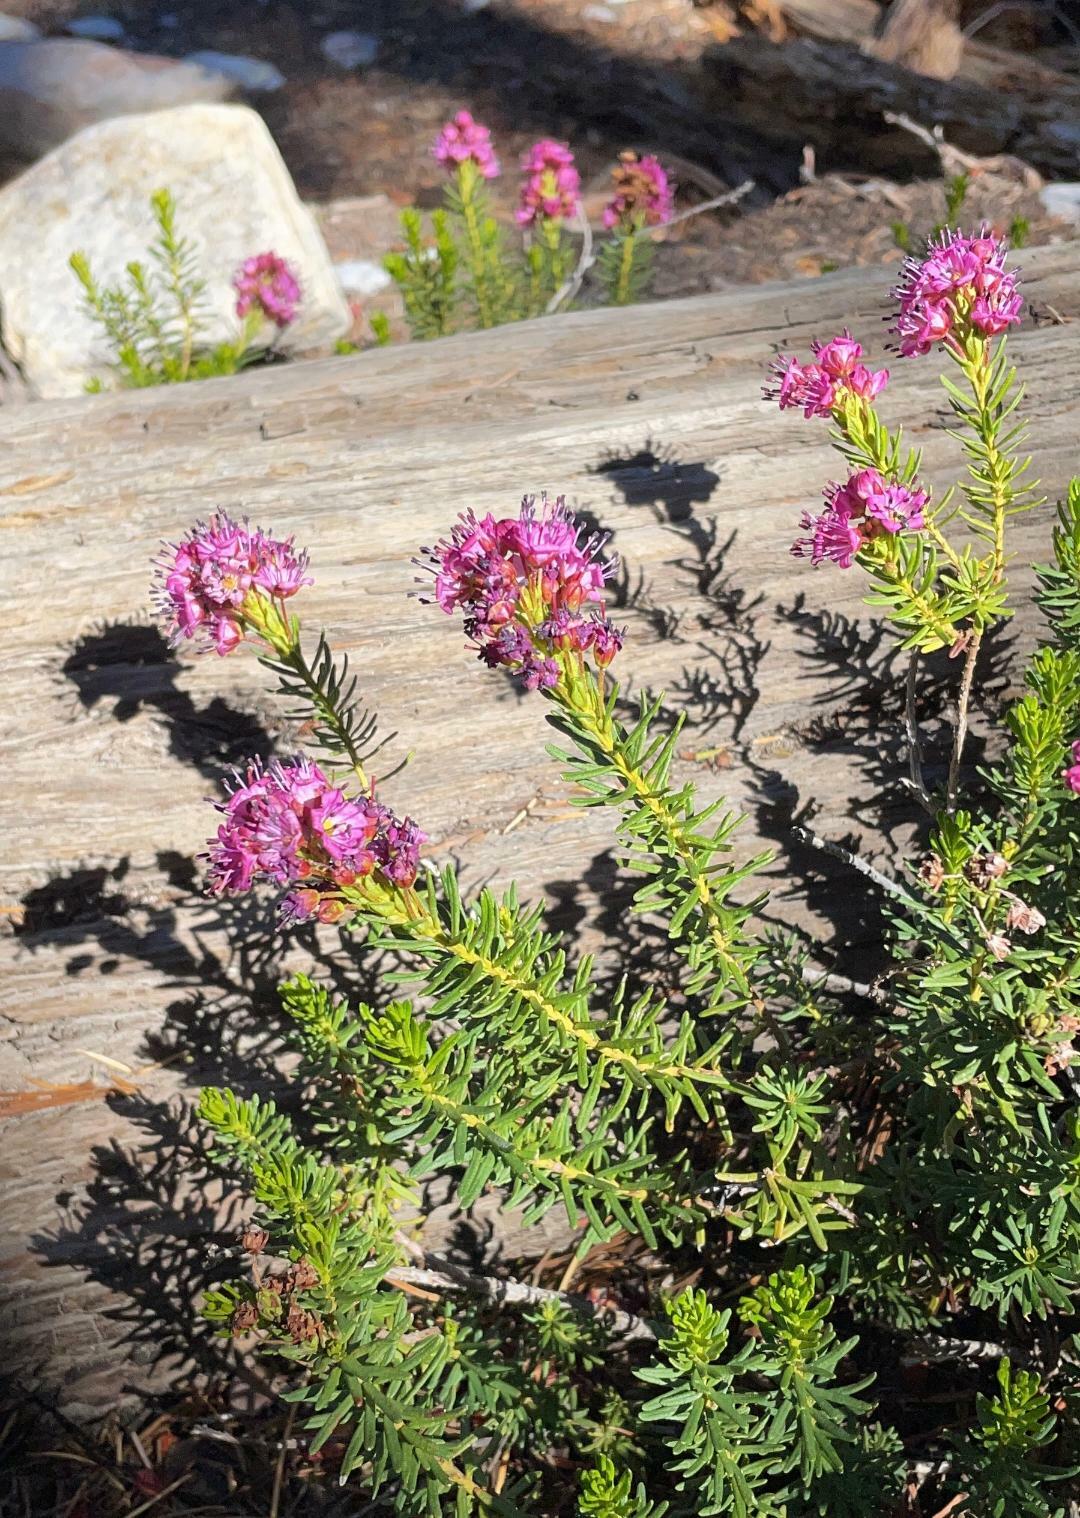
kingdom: Plantae
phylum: Tracheophyta
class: Magnoliopsida
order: Ericales
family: Ericaceae
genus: Phyllodoce
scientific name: Phyllodoce breweri
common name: Brewer's mountain-heather
